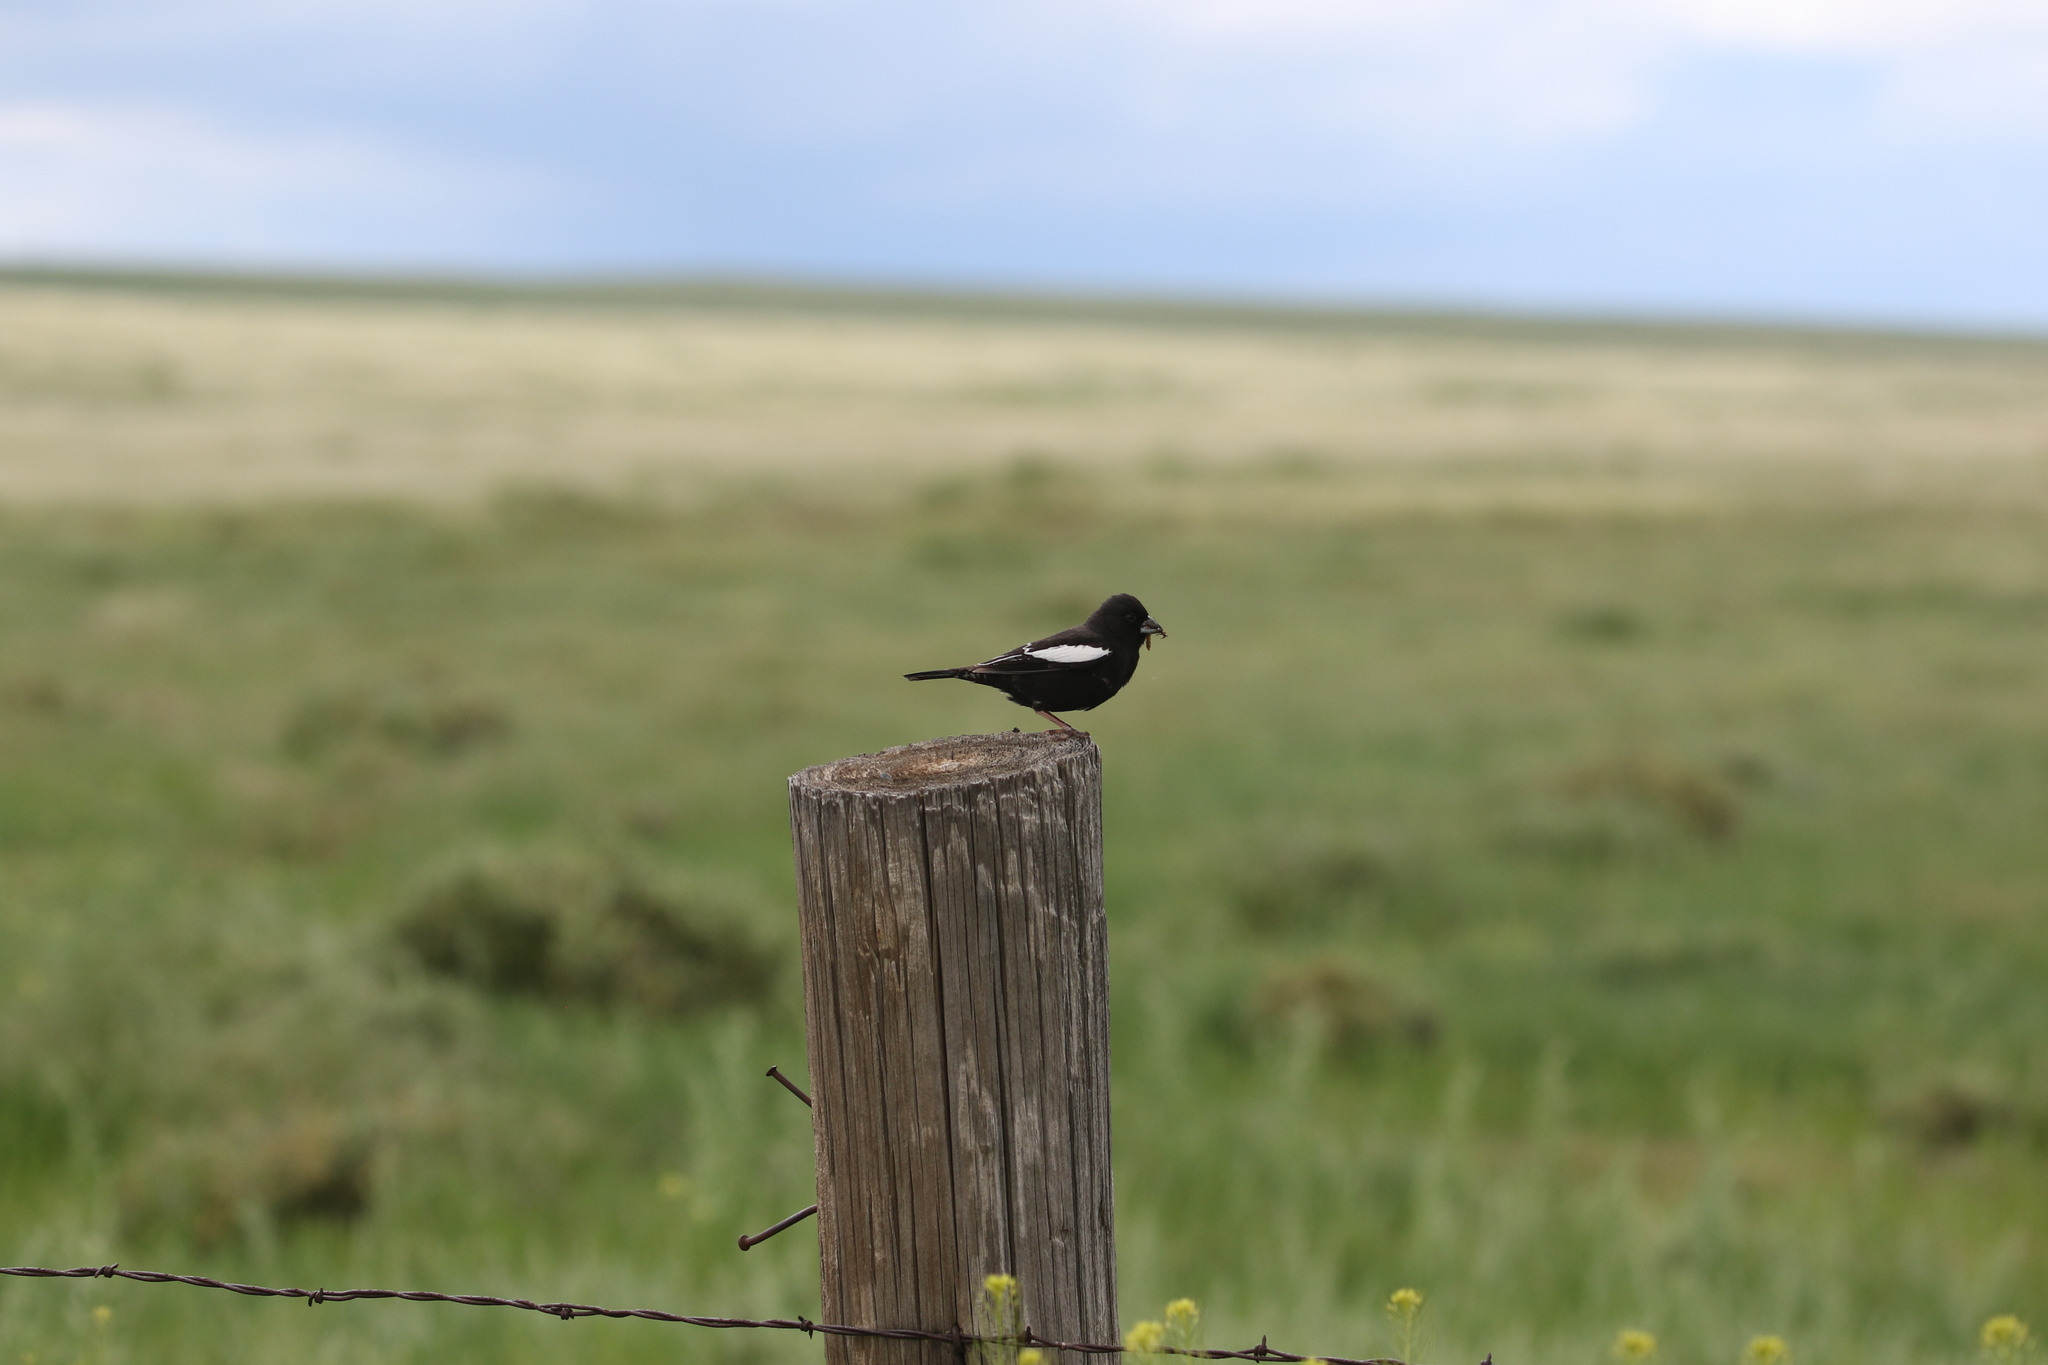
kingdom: Animalia
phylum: Chordata
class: Aves
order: Passeriformes
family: Passerellidae
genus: Calamospiza
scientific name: Calamospiza melanocorys
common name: Lark bunting
